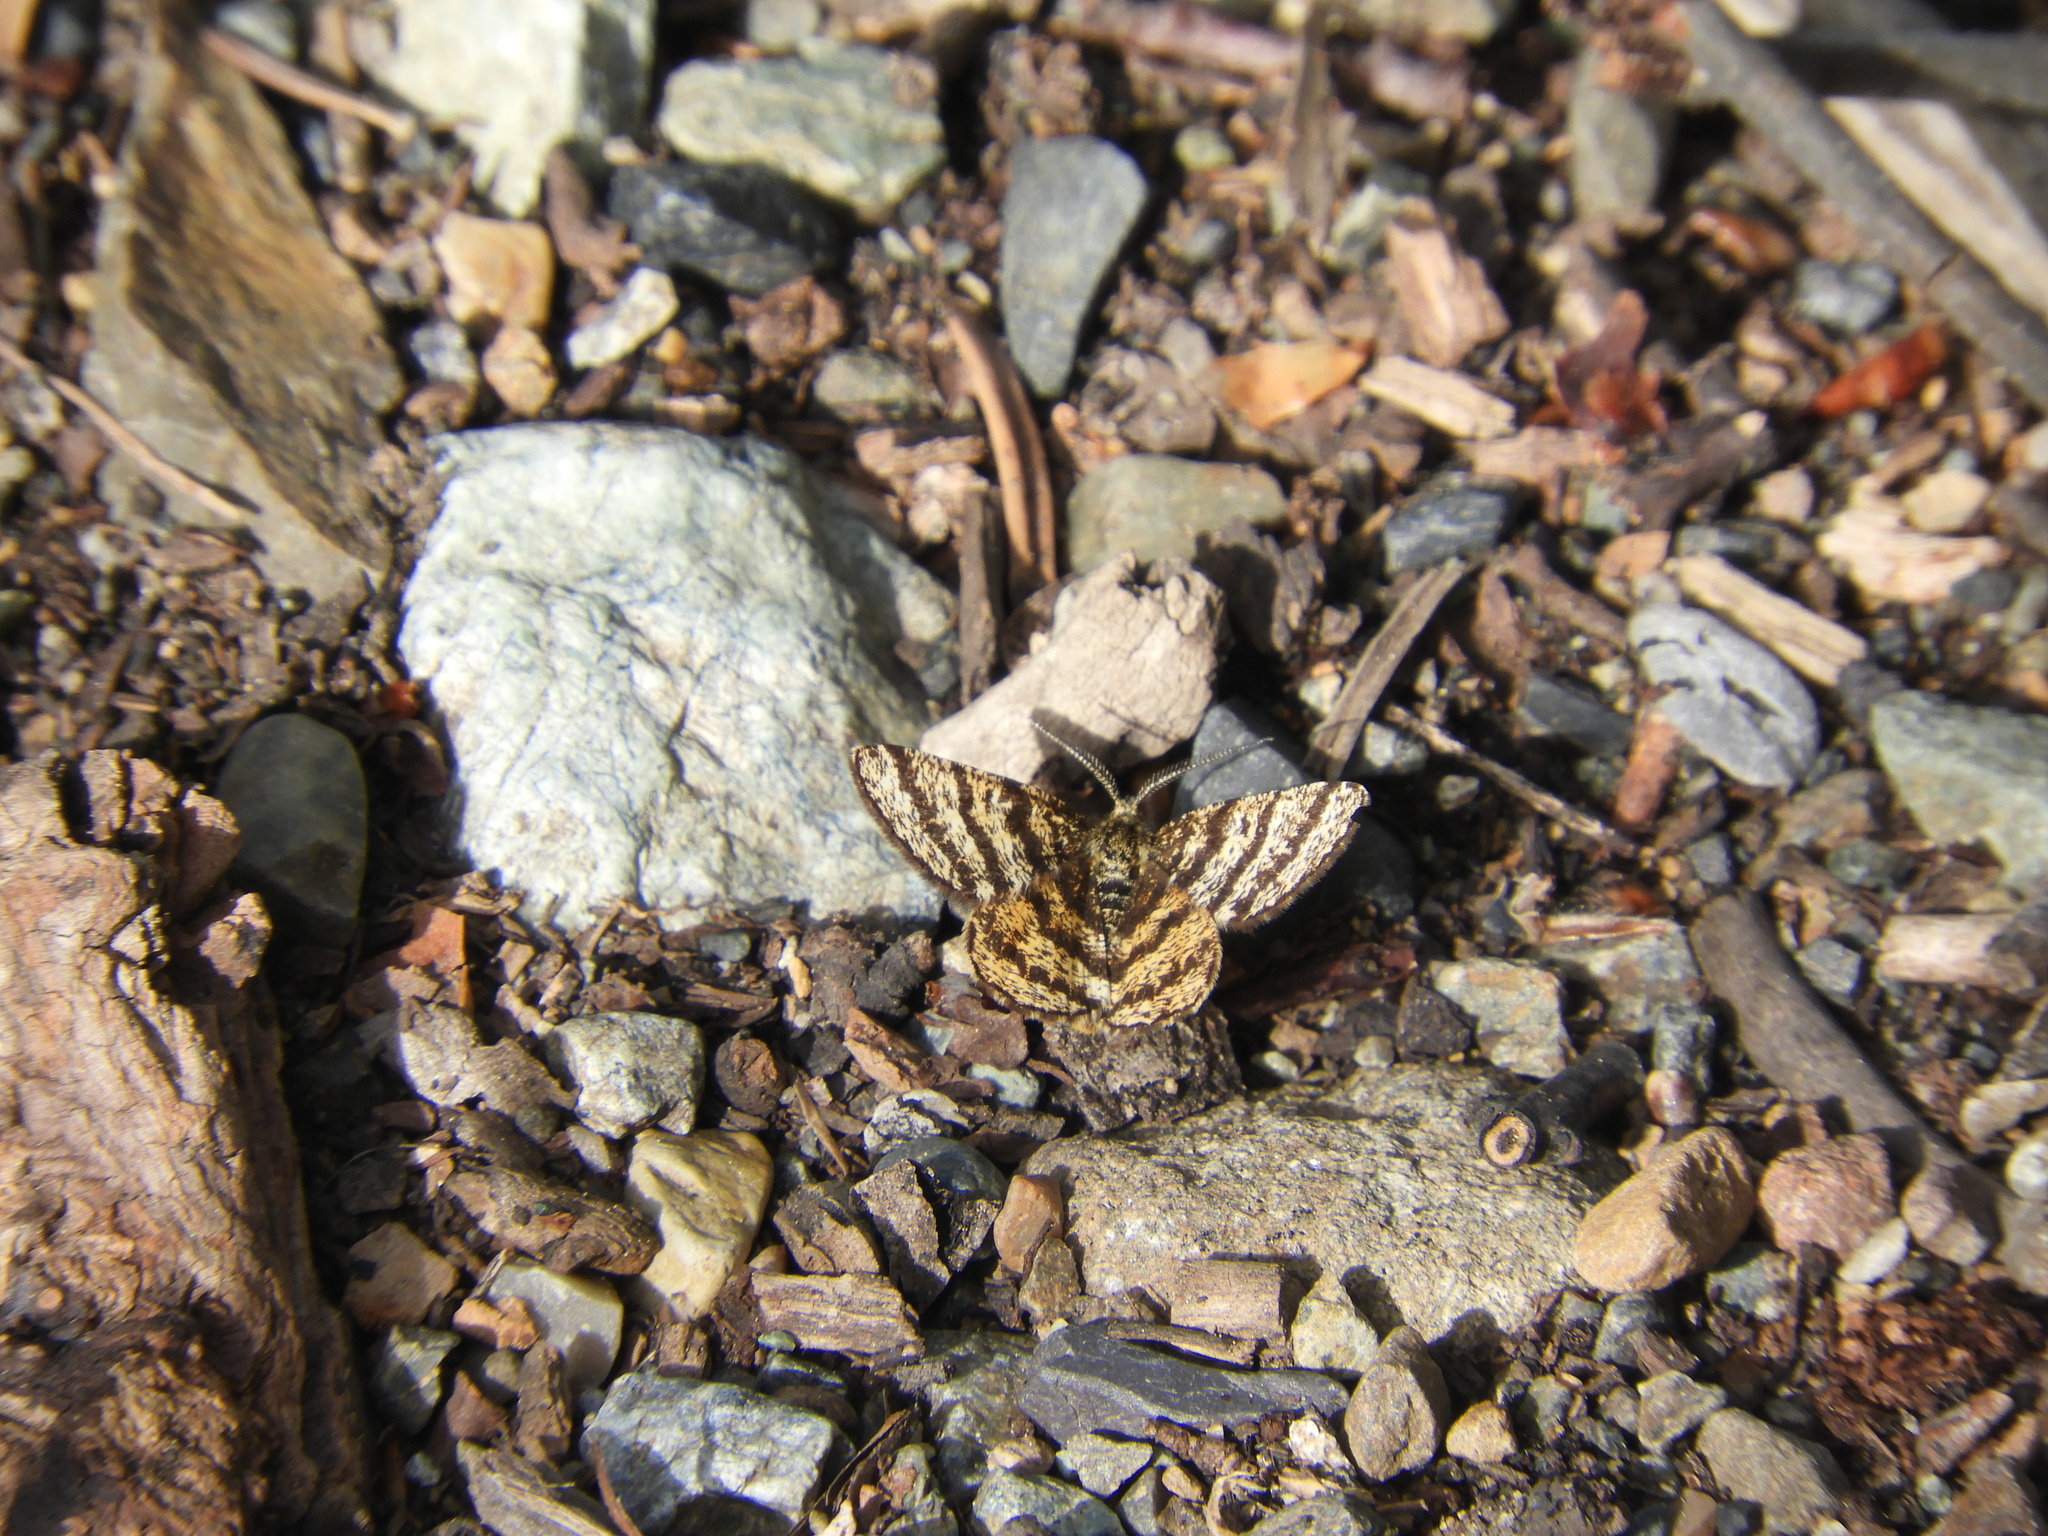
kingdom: Animalia
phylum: Arthropoda
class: Insecta
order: Lepidoptera
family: Geometridae
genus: Macaria
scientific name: Macaria truncataria
